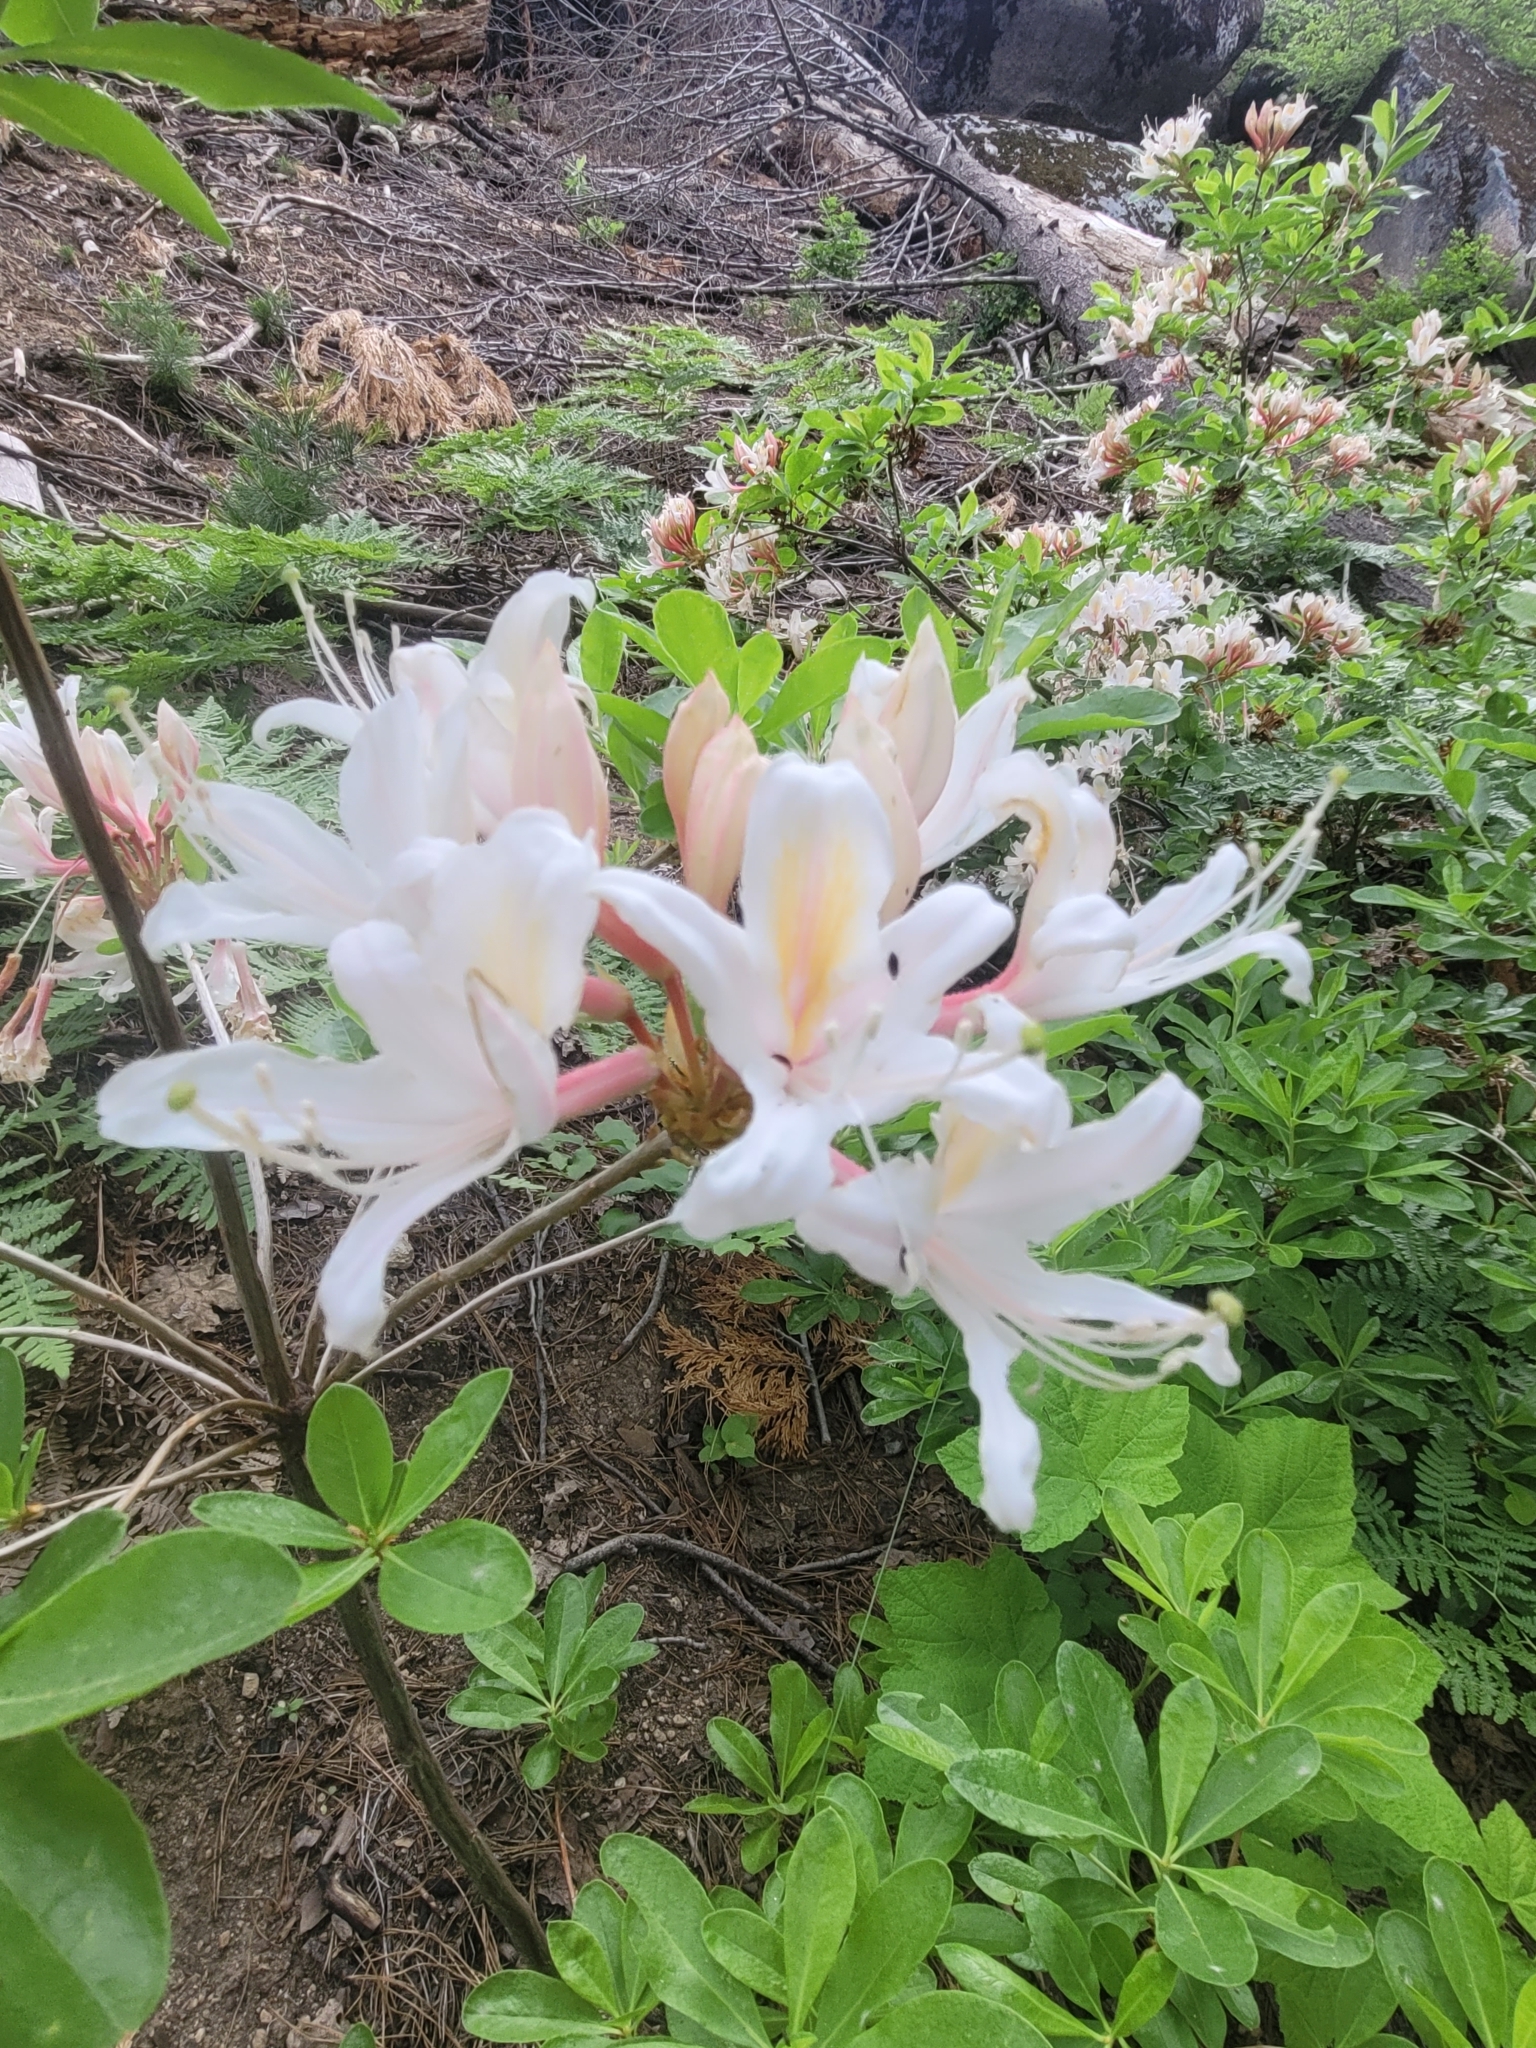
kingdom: Plantae
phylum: Tracheophyta
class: Magnoliopsida
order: Ericales
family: Ericaceae
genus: Rhododendron
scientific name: Rhododendron occidentale
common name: Western azalea
